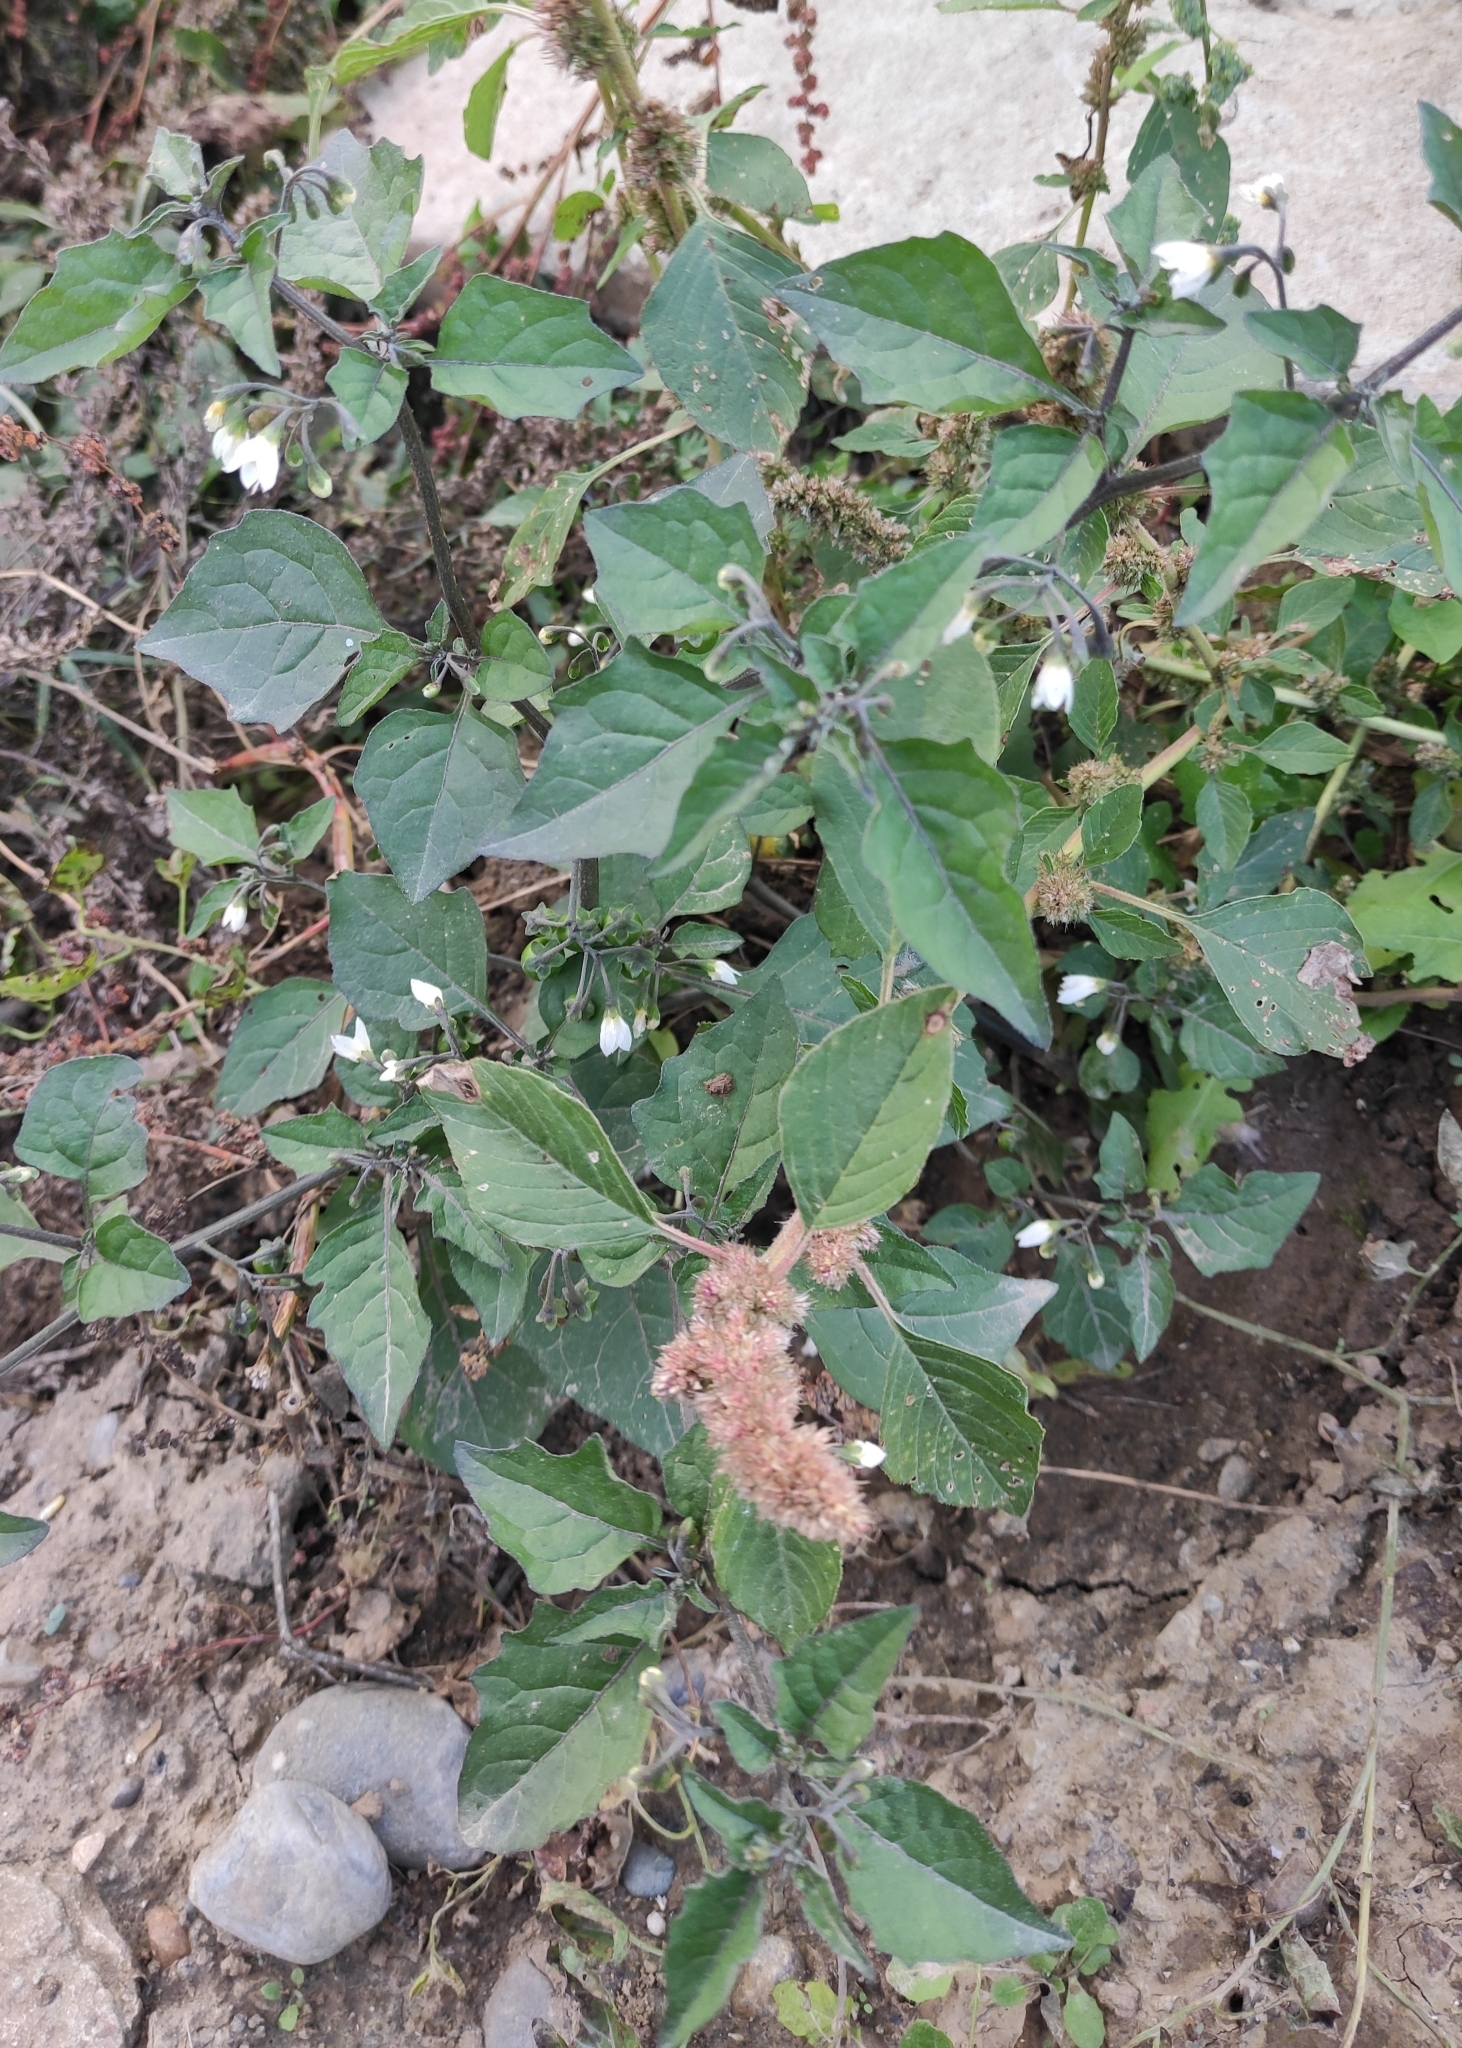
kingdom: Plantae
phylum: Tracheophyta
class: Magnoliopsida
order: Solanales
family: Solanaceae
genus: Solanum
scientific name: Solanum nigrum
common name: Black nightshade
